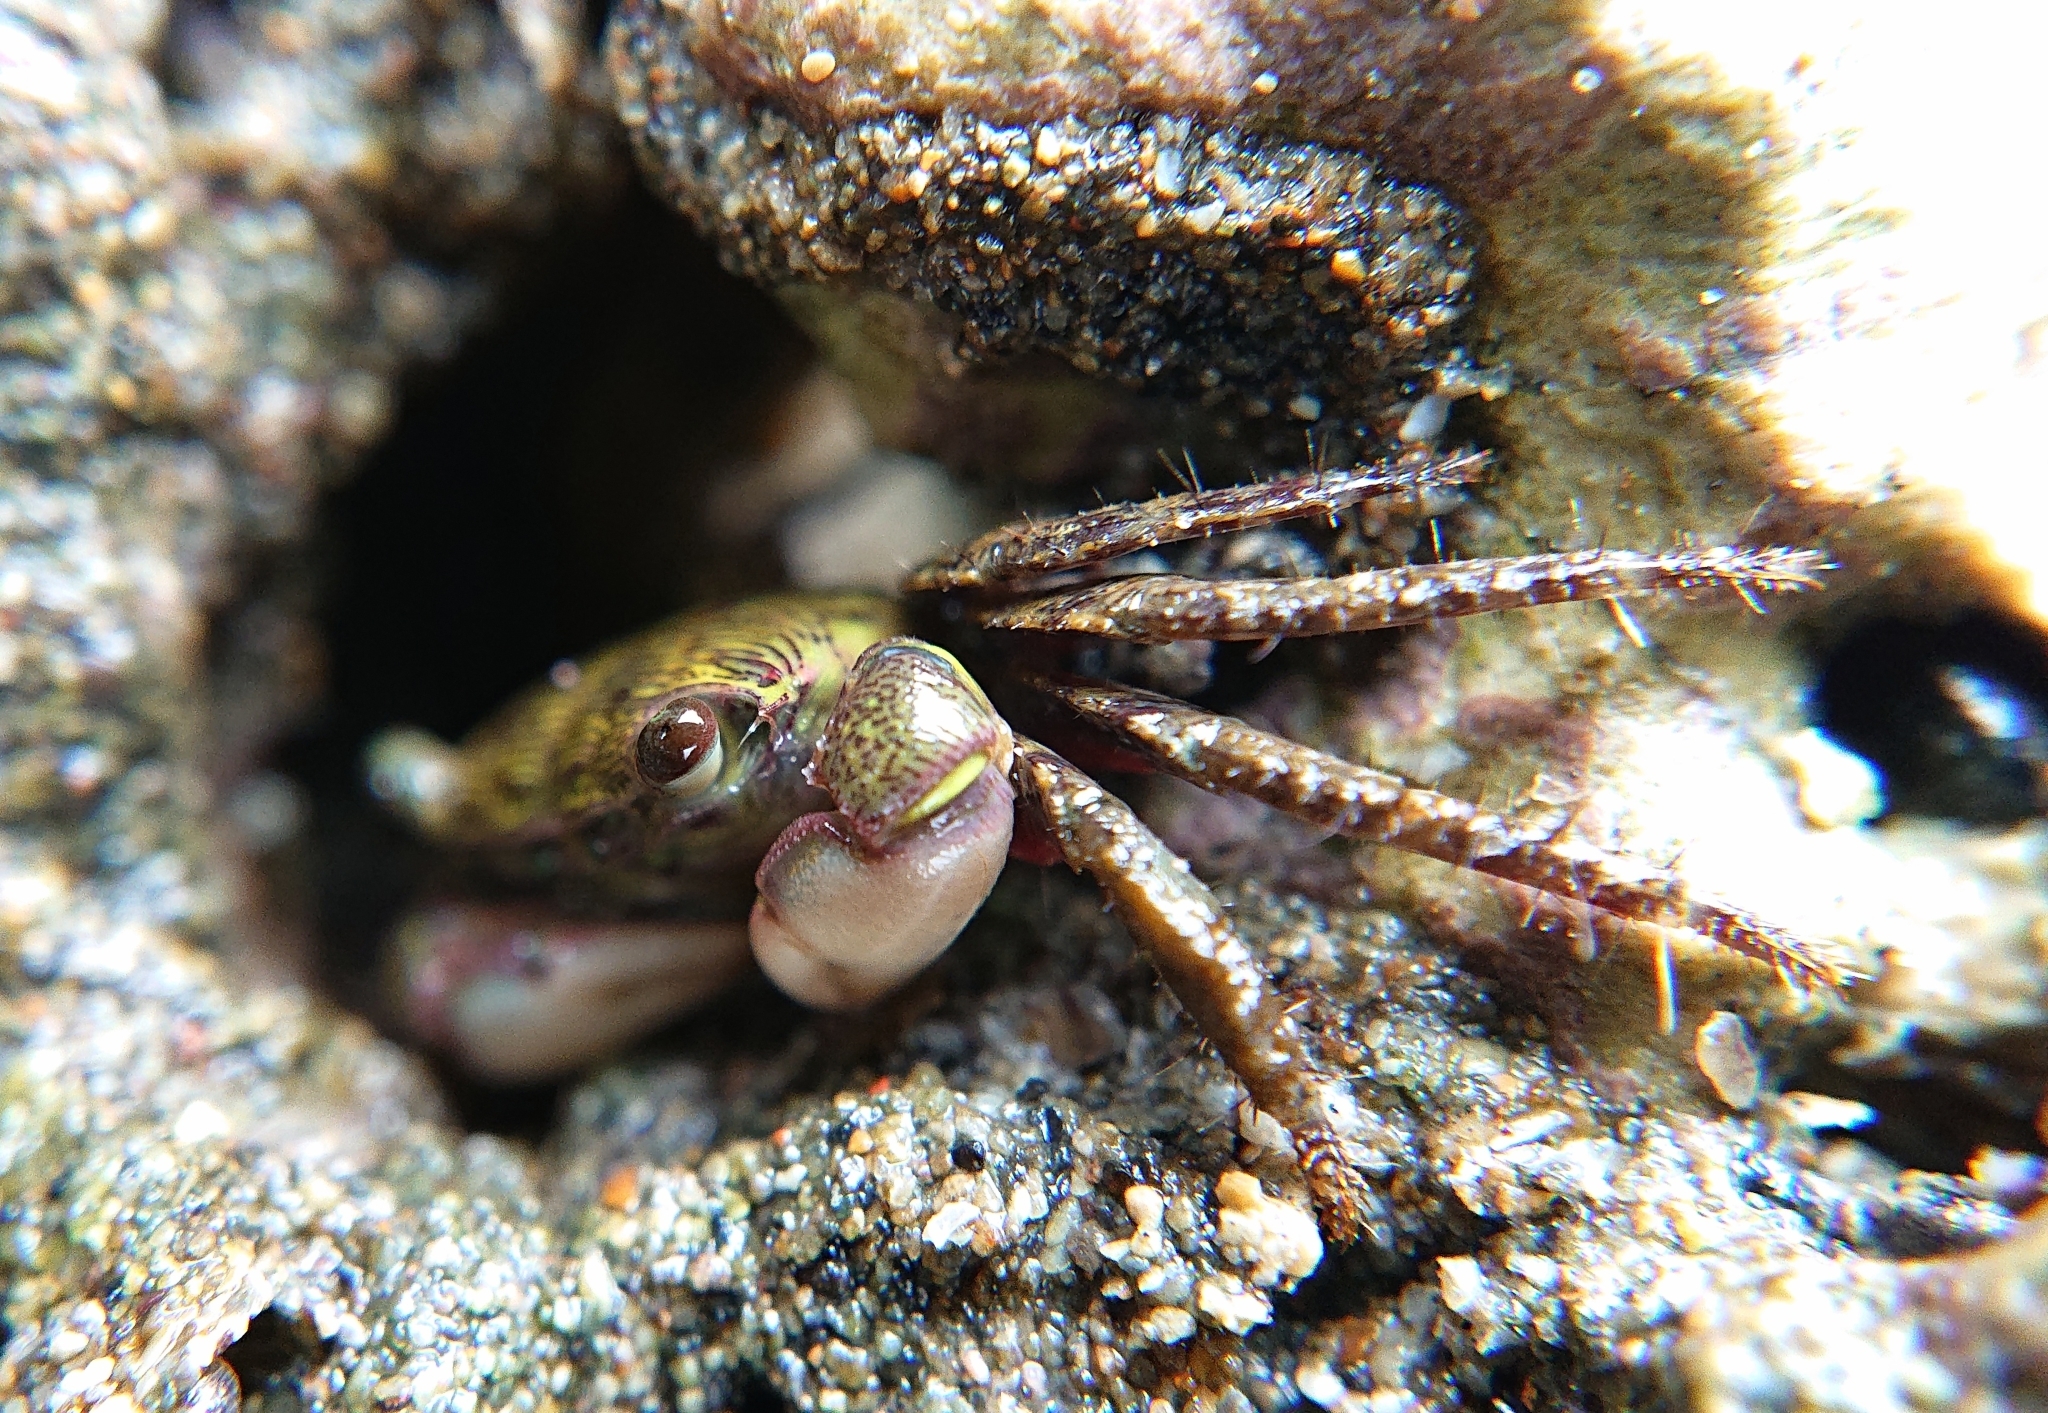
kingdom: Animalia
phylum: Arthropoda
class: Malacostraca
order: Decapoda
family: Grapsidae
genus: Pachygrapsus
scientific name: Pachygrapsus socius
